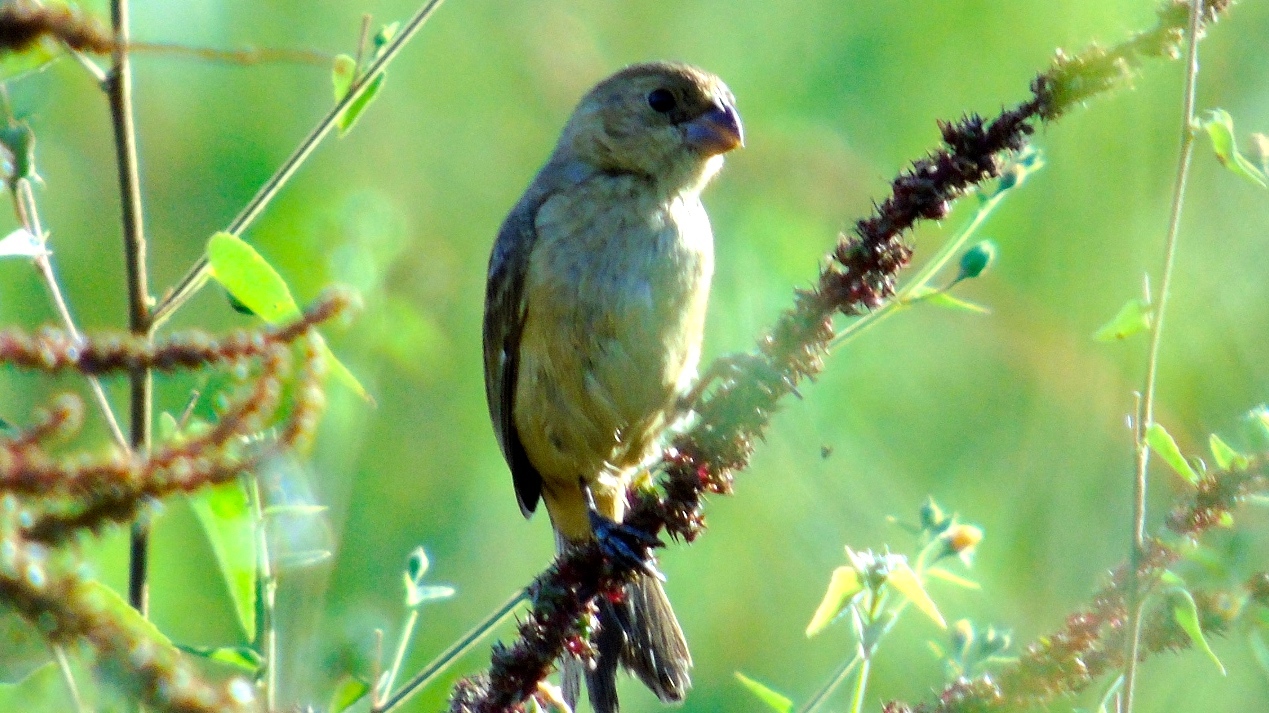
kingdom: Animalia
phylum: Chordata
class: Aves
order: Passeriformes
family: Thraupidae
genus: Sporophila
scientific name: Sporophila torqueola
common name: White-collared seedeater
